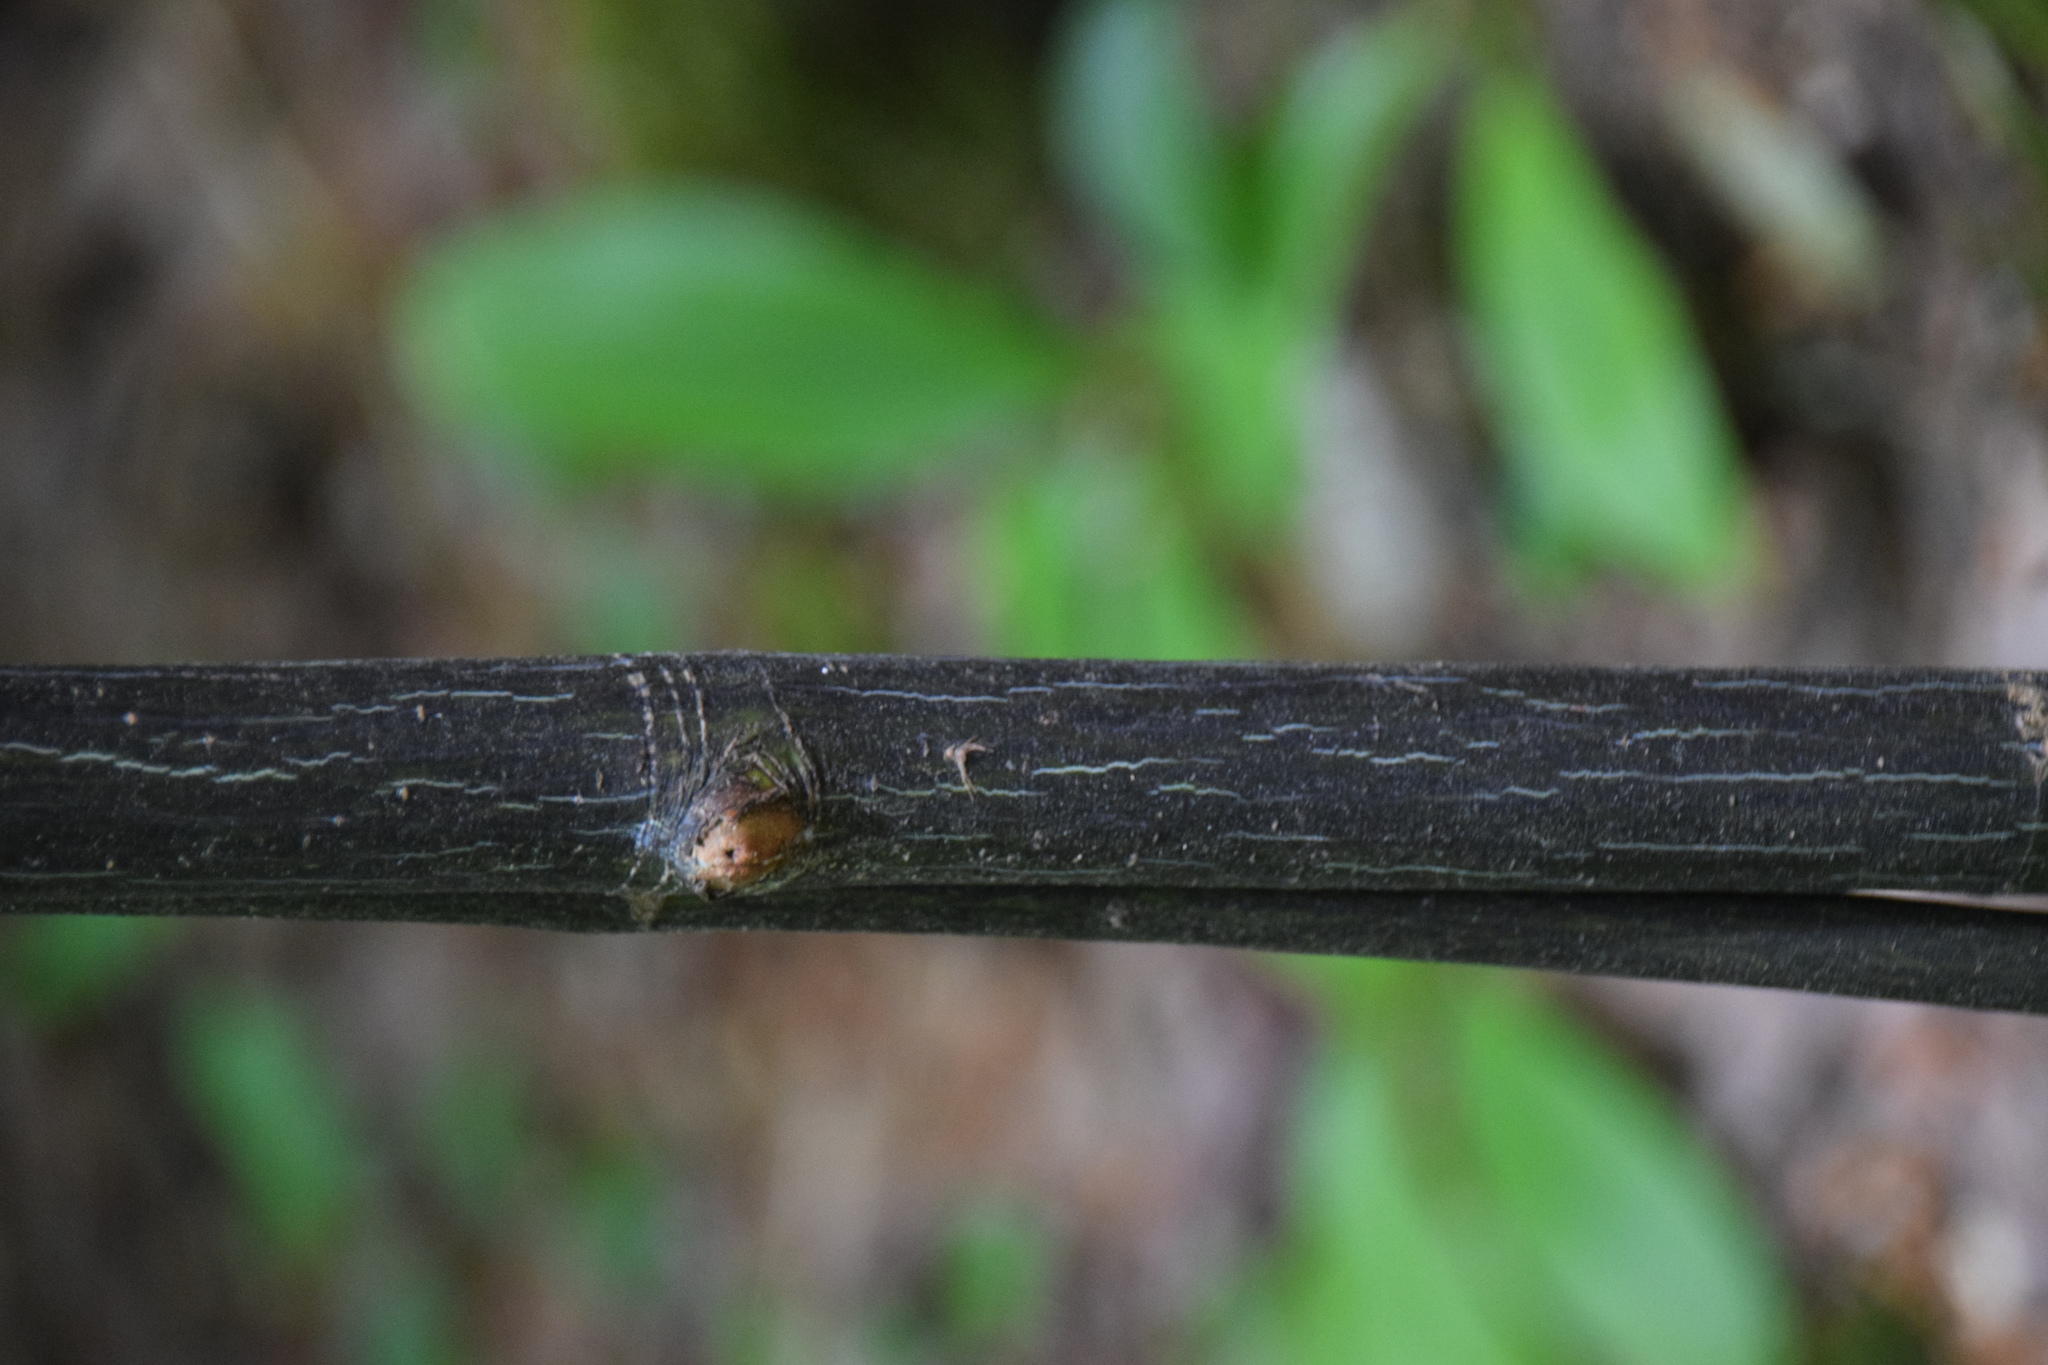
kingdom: Plantae
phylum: Tracheophyta
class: Magnoliopsida
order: Sapindales
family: Sapindaceae
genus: Acer
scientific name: Acer pensylvanicum
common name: Moosewood
